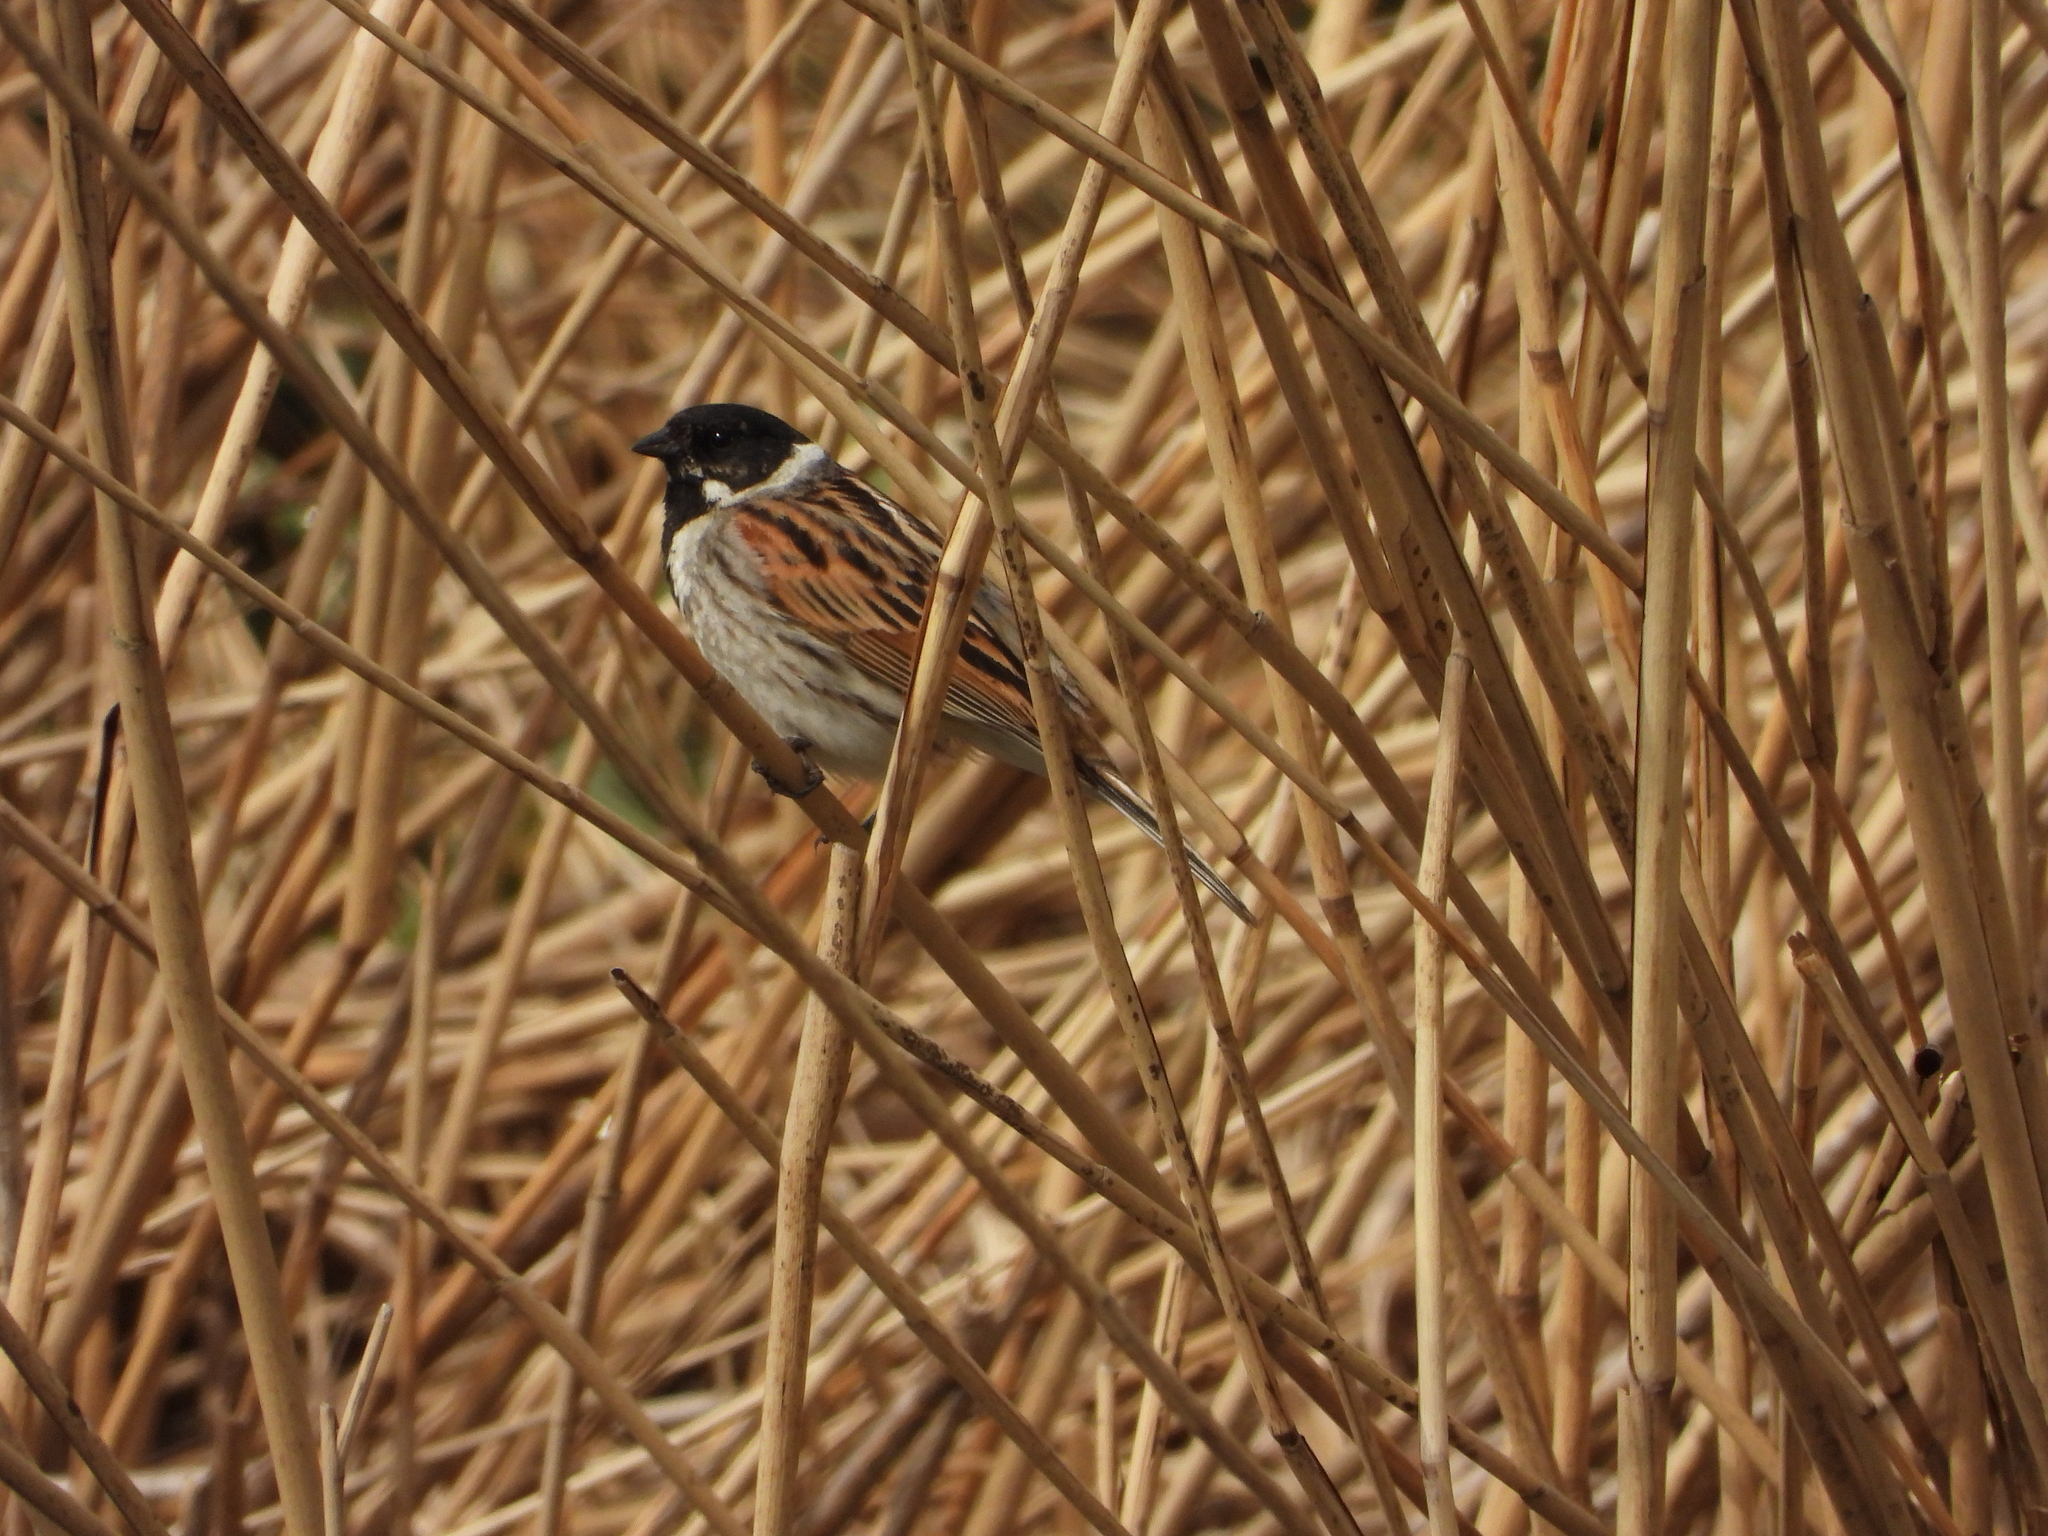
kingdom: Animalia
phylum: Chordata
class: Aves
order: Passeriformes
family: Emberizidae
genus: Emberiza
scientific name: Emberiza schoeniclus
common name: Reed bunting
